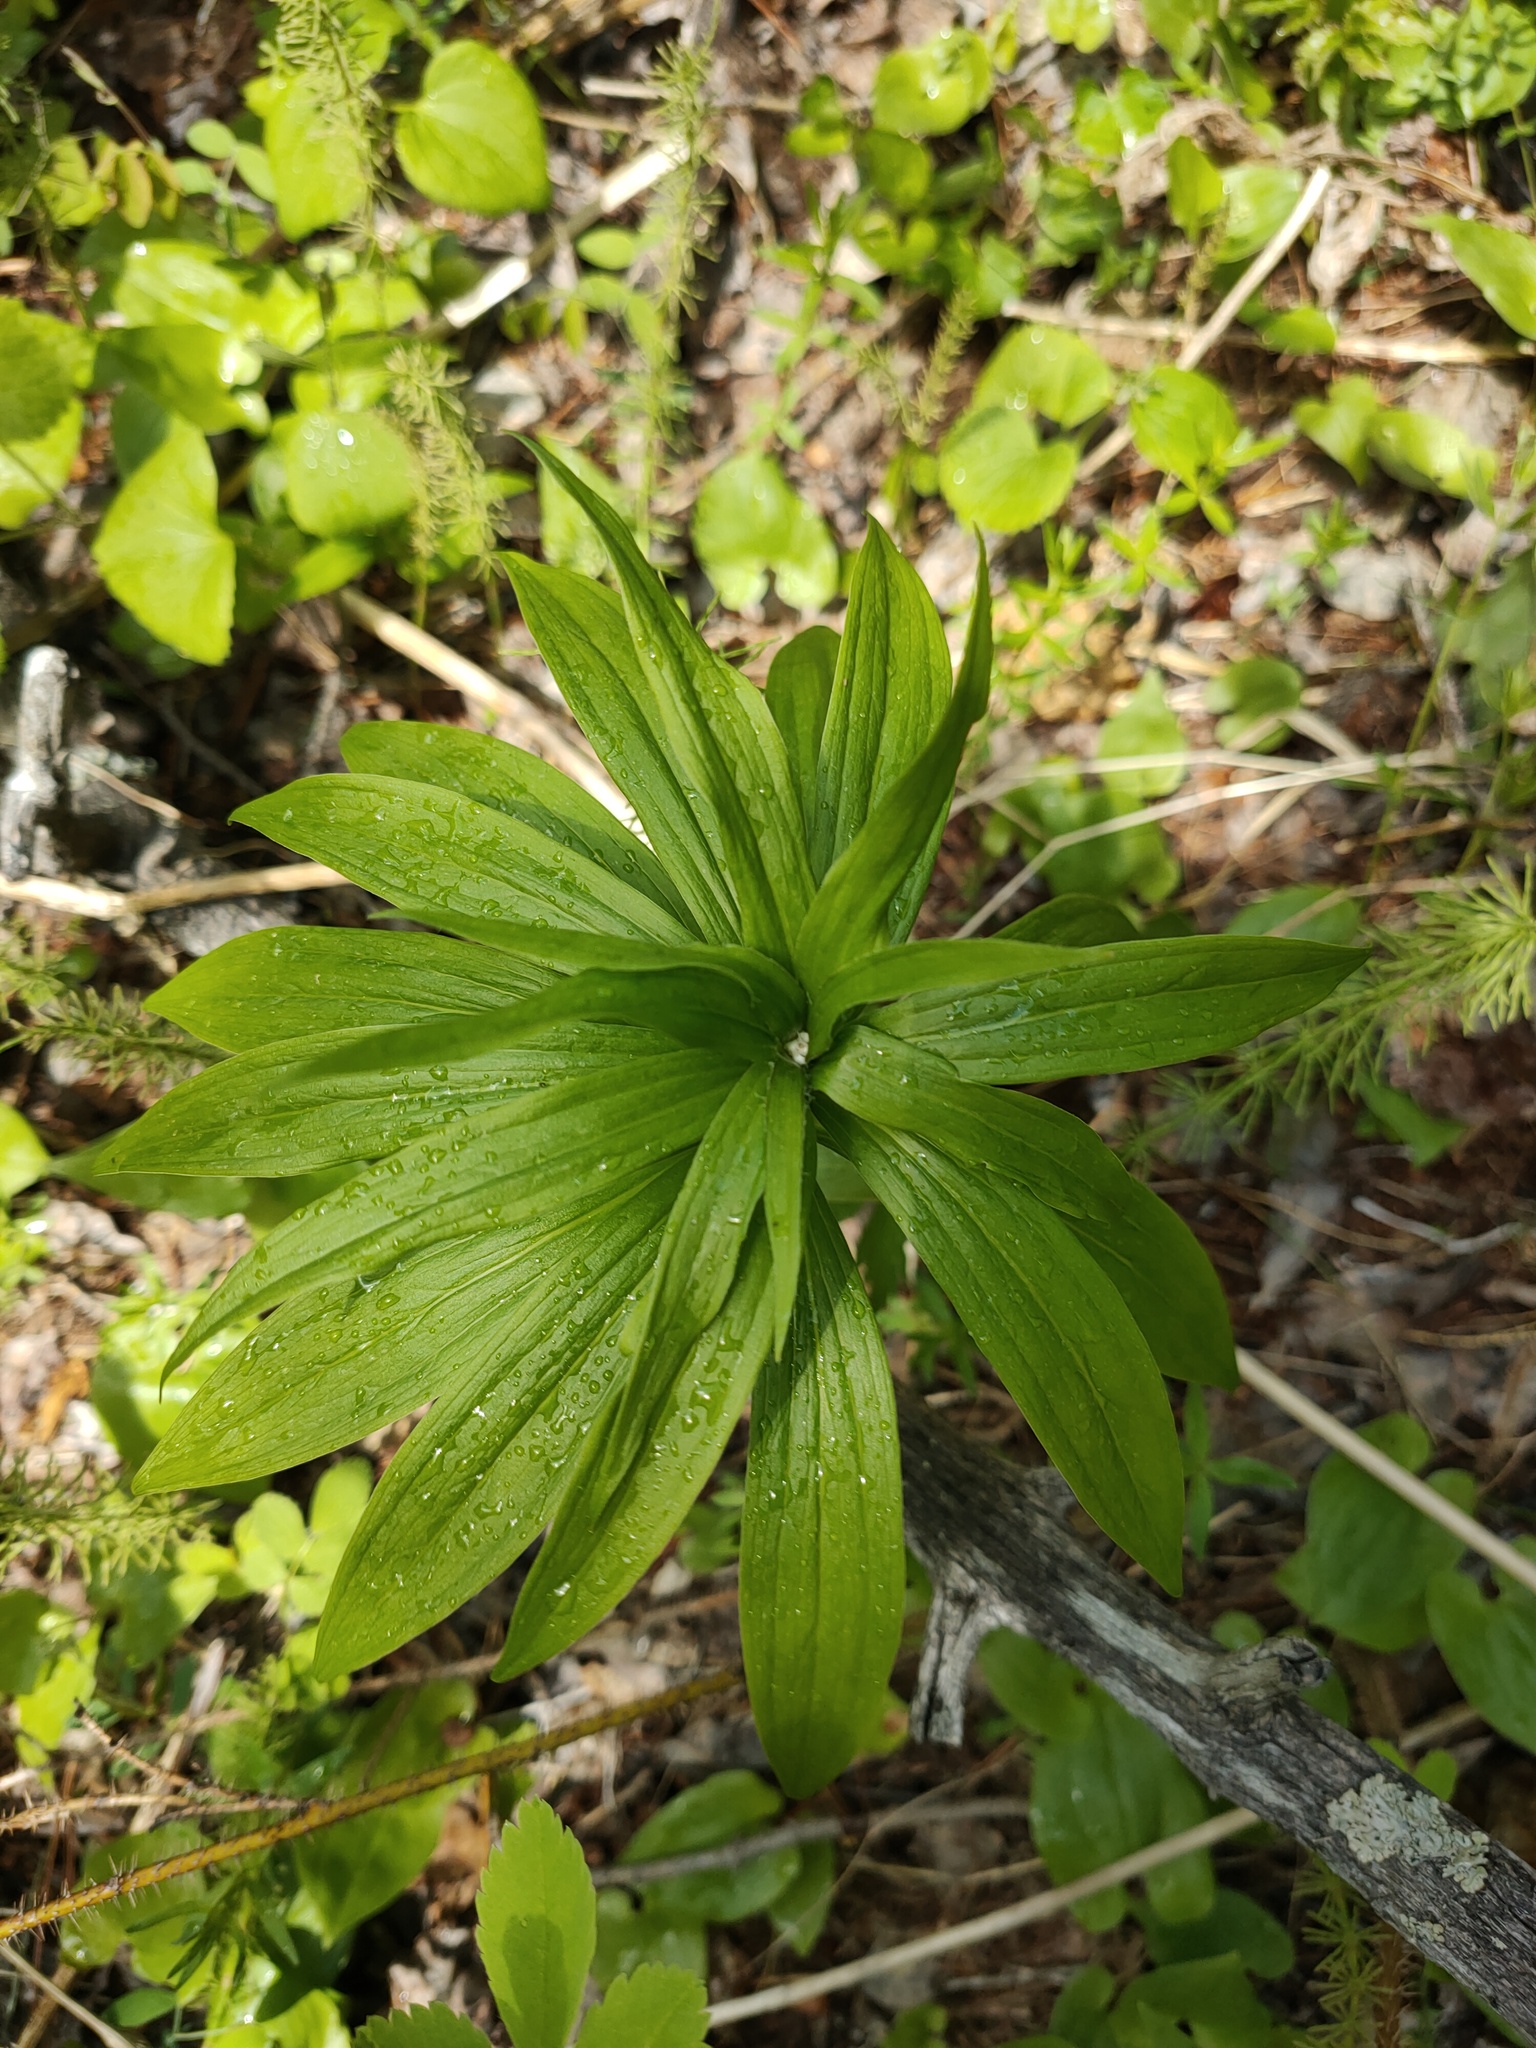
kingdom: Plantae
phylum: Tracheophyta
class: Liliopsida
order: Liliales
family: Liliaceae
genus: Lilium
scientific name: Lilium martagon
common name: Martagon lily
